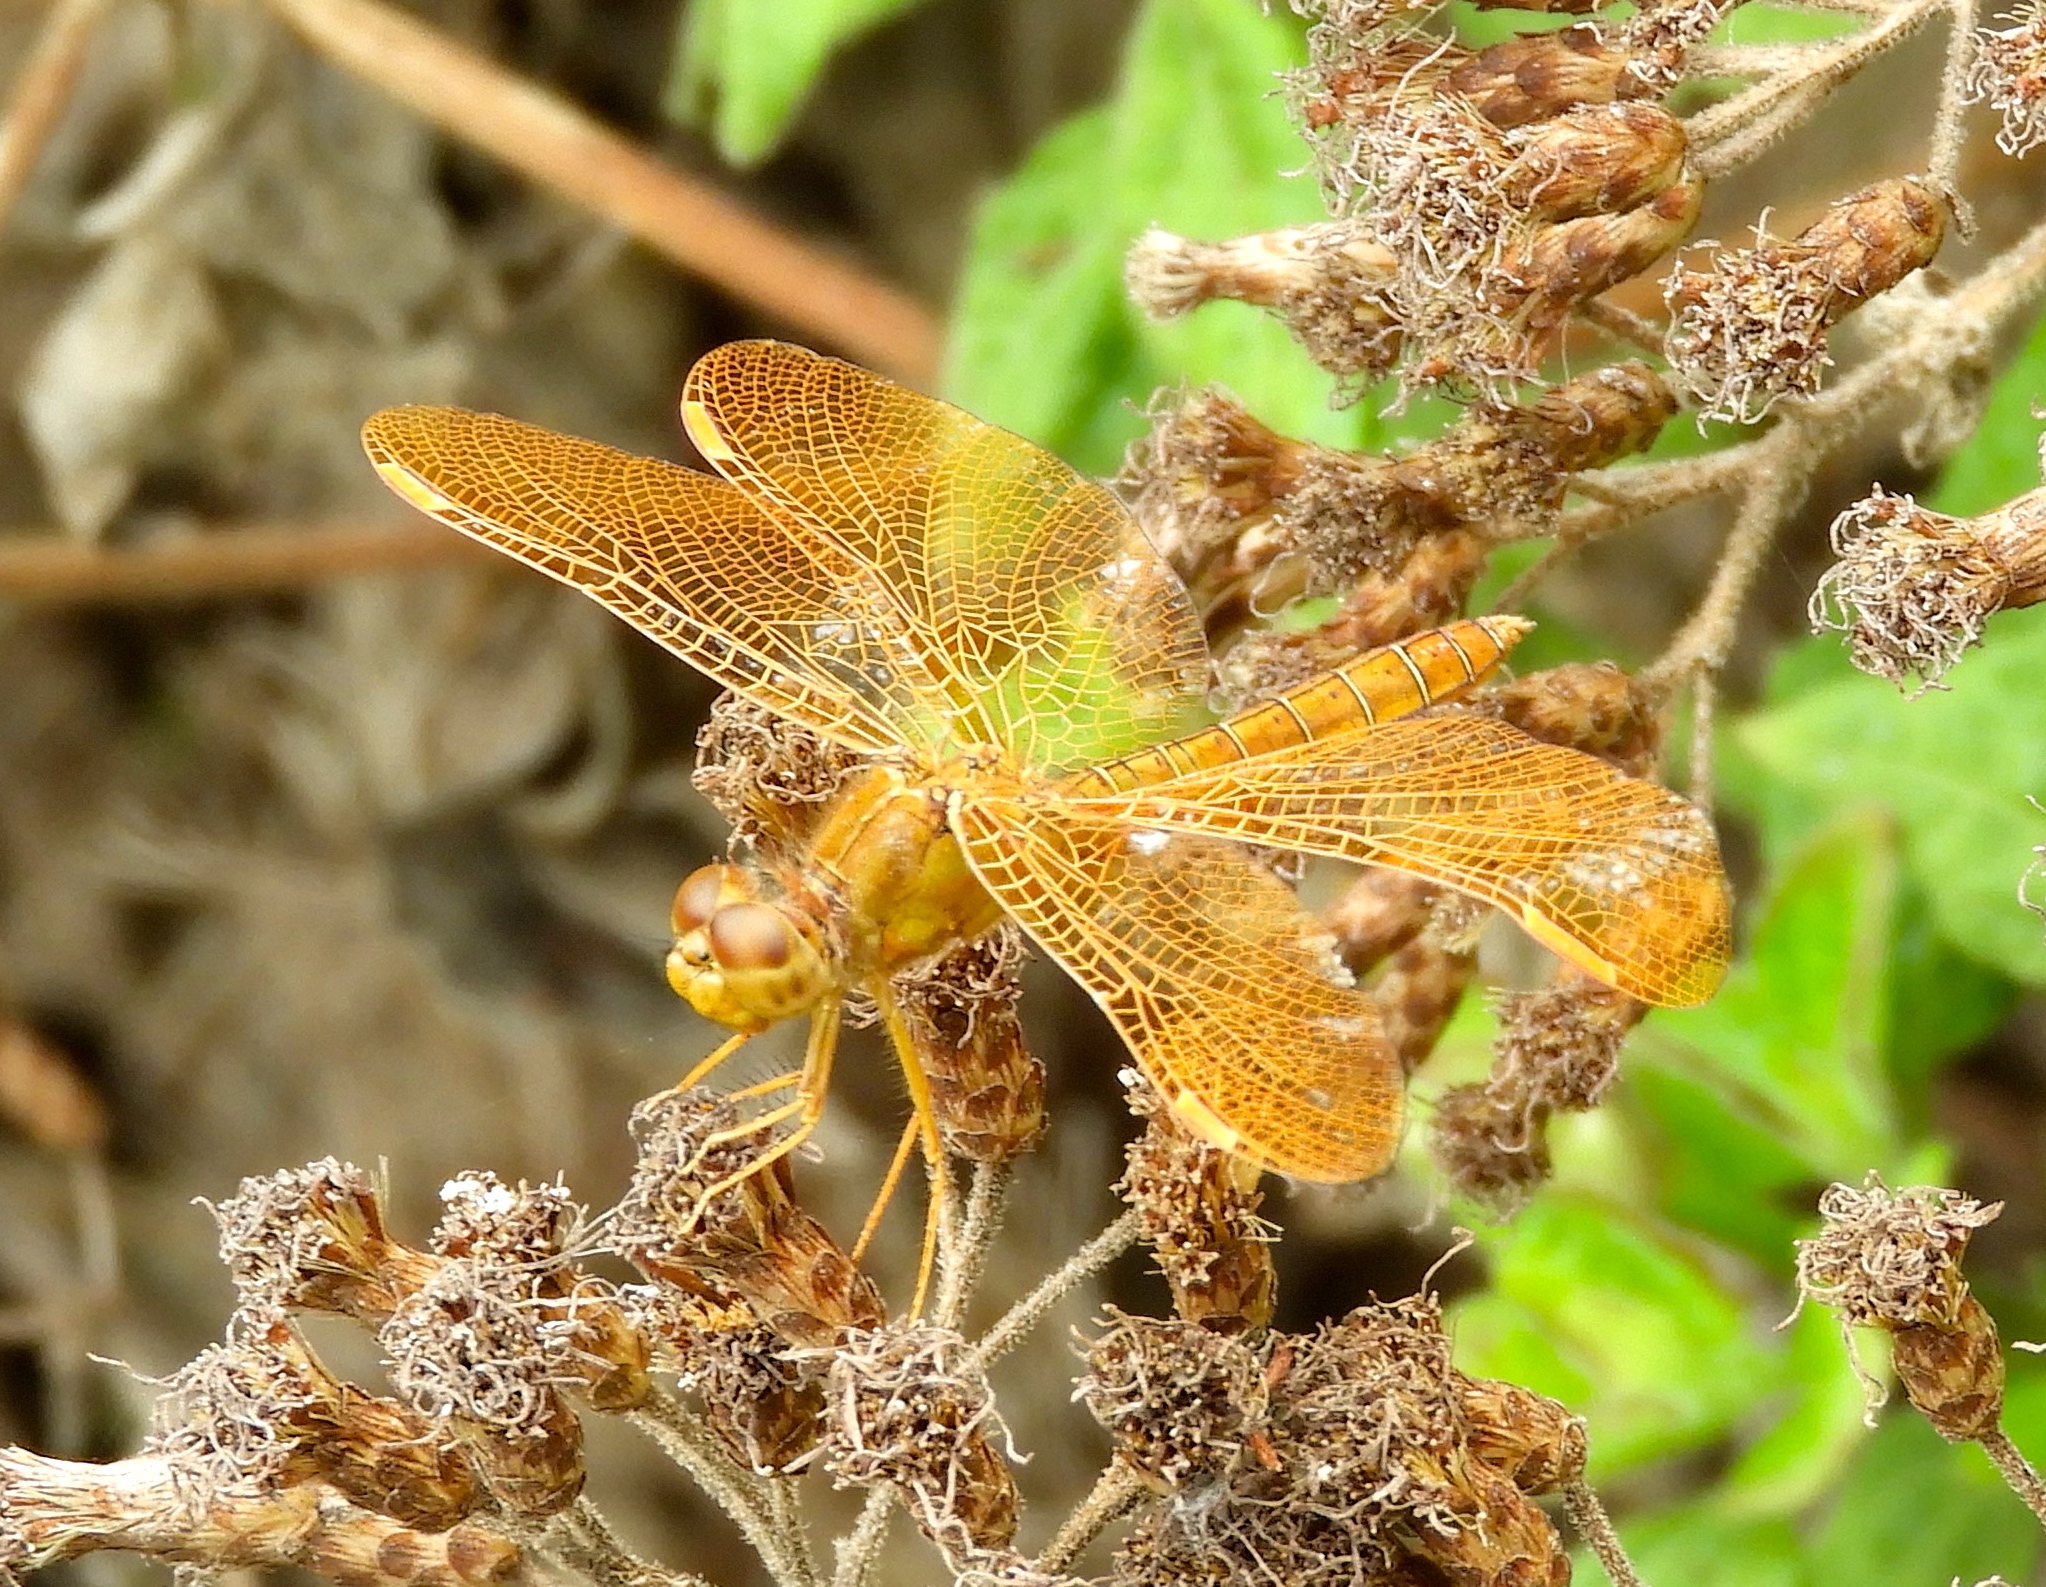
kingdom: Animalia
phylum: Arthropoda
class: Insecta
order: Odonata
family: Libellulidae
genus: Perithemis
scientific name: Perithemis intensa
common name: Mexican amberwing
